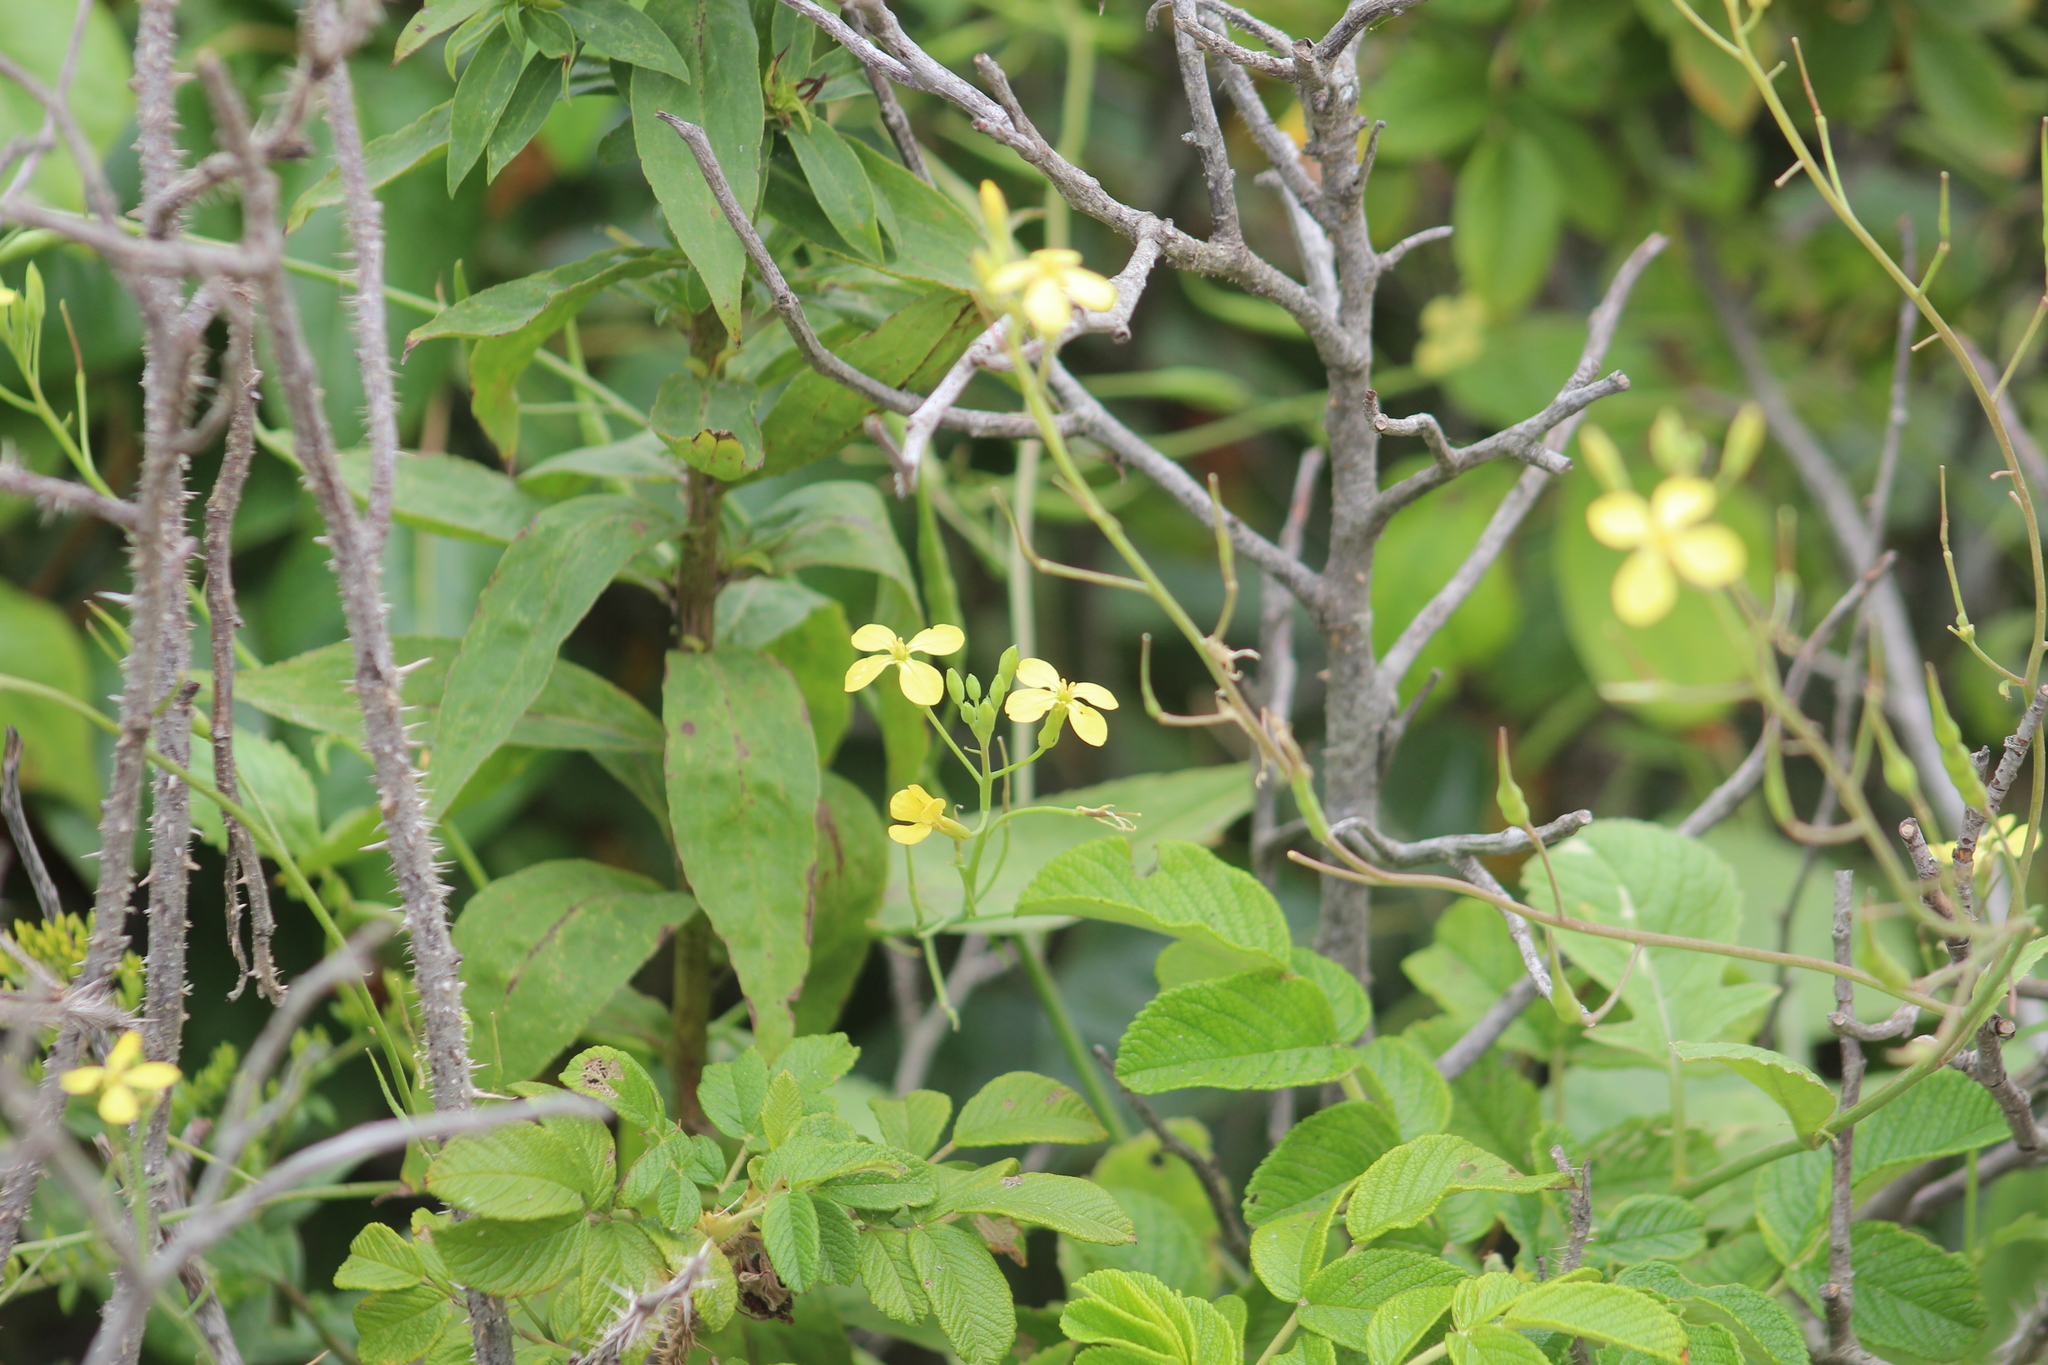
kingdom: Plantae
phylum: Tracheophyta
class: Magnoliopsida
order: Brassicales
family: Brassicaceae
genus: Raphanus
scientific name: Raphanus raphanistrum
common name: Wild radish
